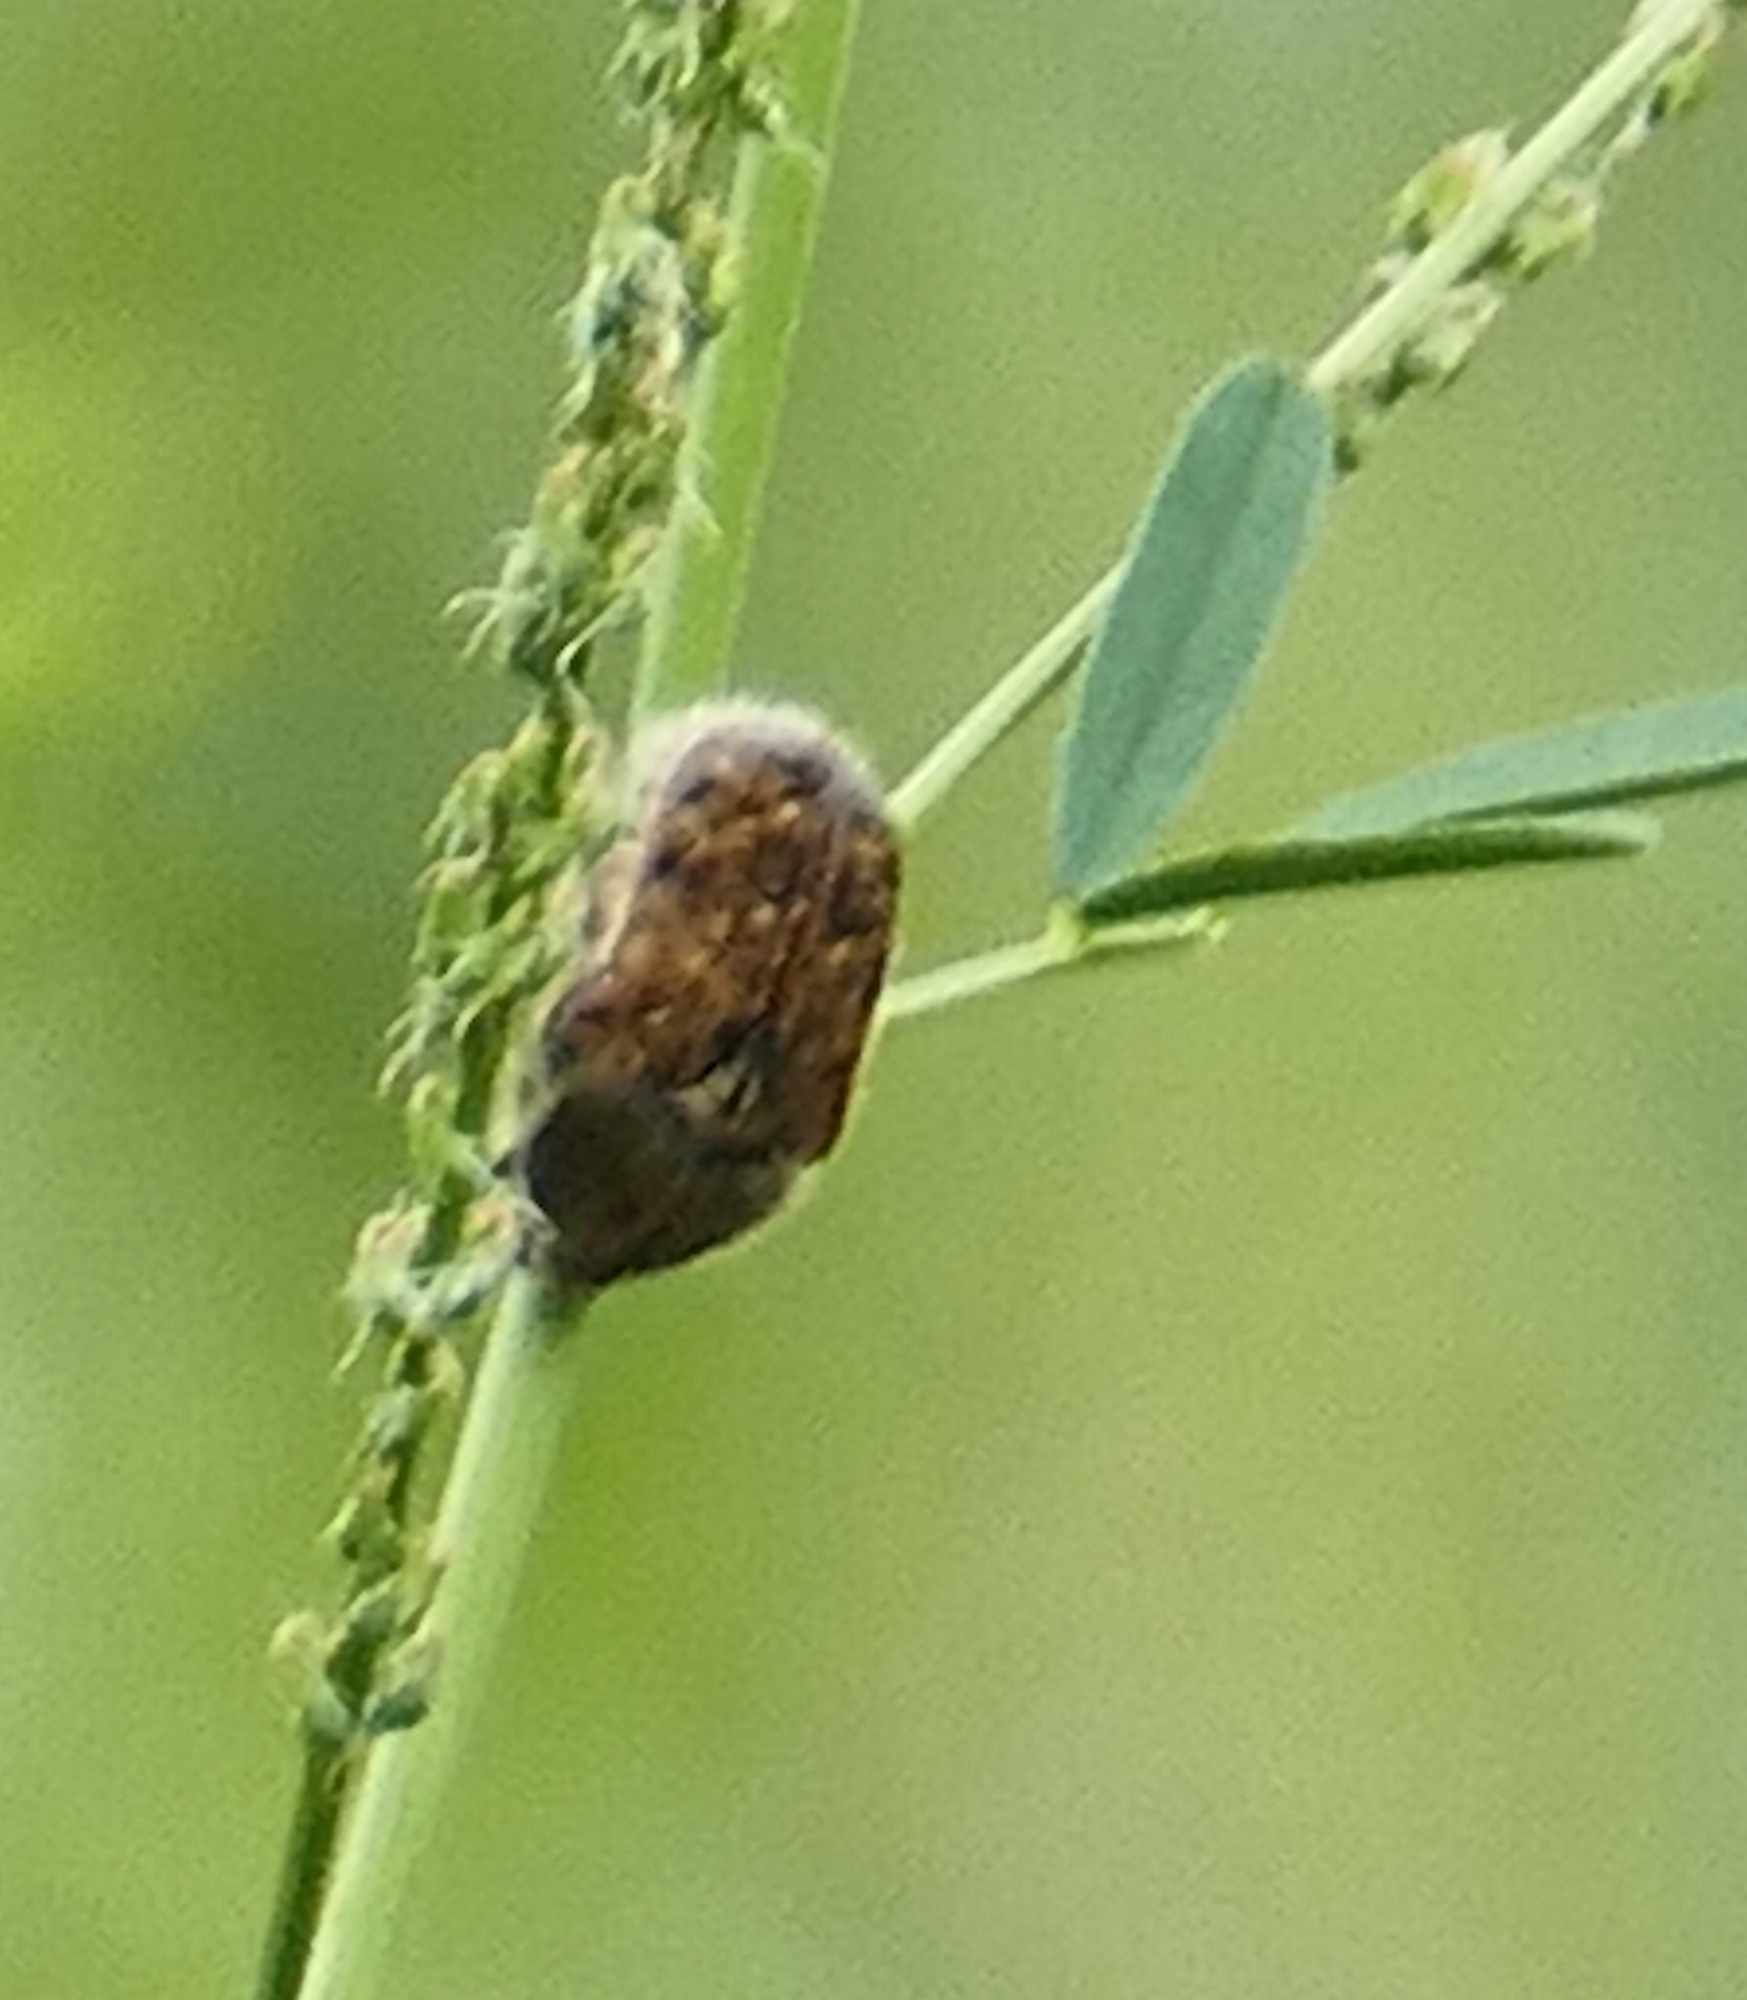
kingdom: Animalia
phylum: Arthropoda
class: Insecta
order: Coleoptera
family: Scarabaeidae
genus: Euphoria
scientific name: Euphoria inda
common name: Bumble flower beetle
